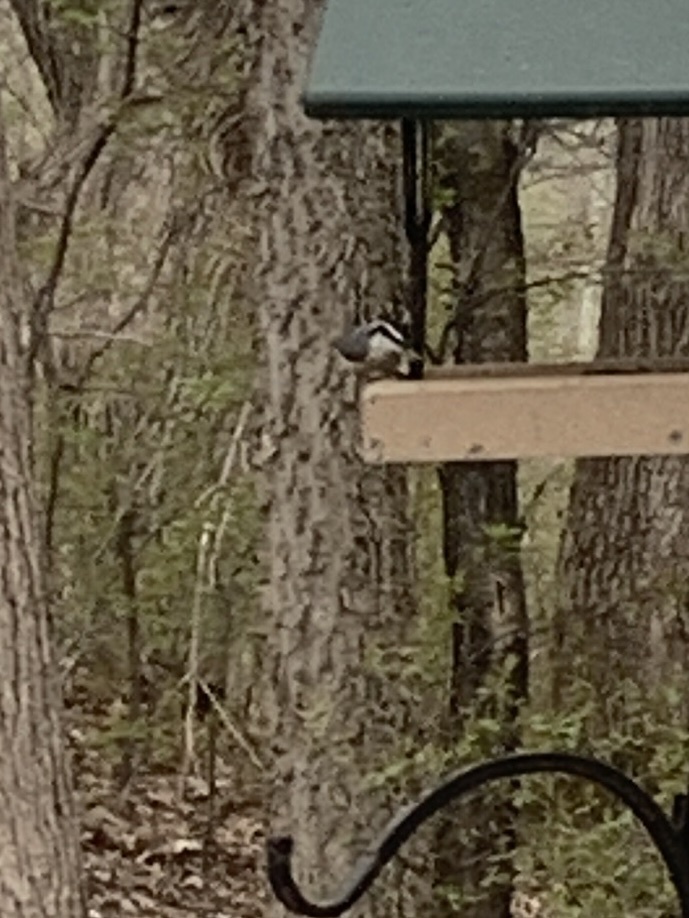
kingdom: Animalia
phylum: Chordata
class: Aves
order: Passeriformes
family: Sittidae
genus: Sitta
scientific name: Sitta canadensis
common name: Red-breasted nuthatch
